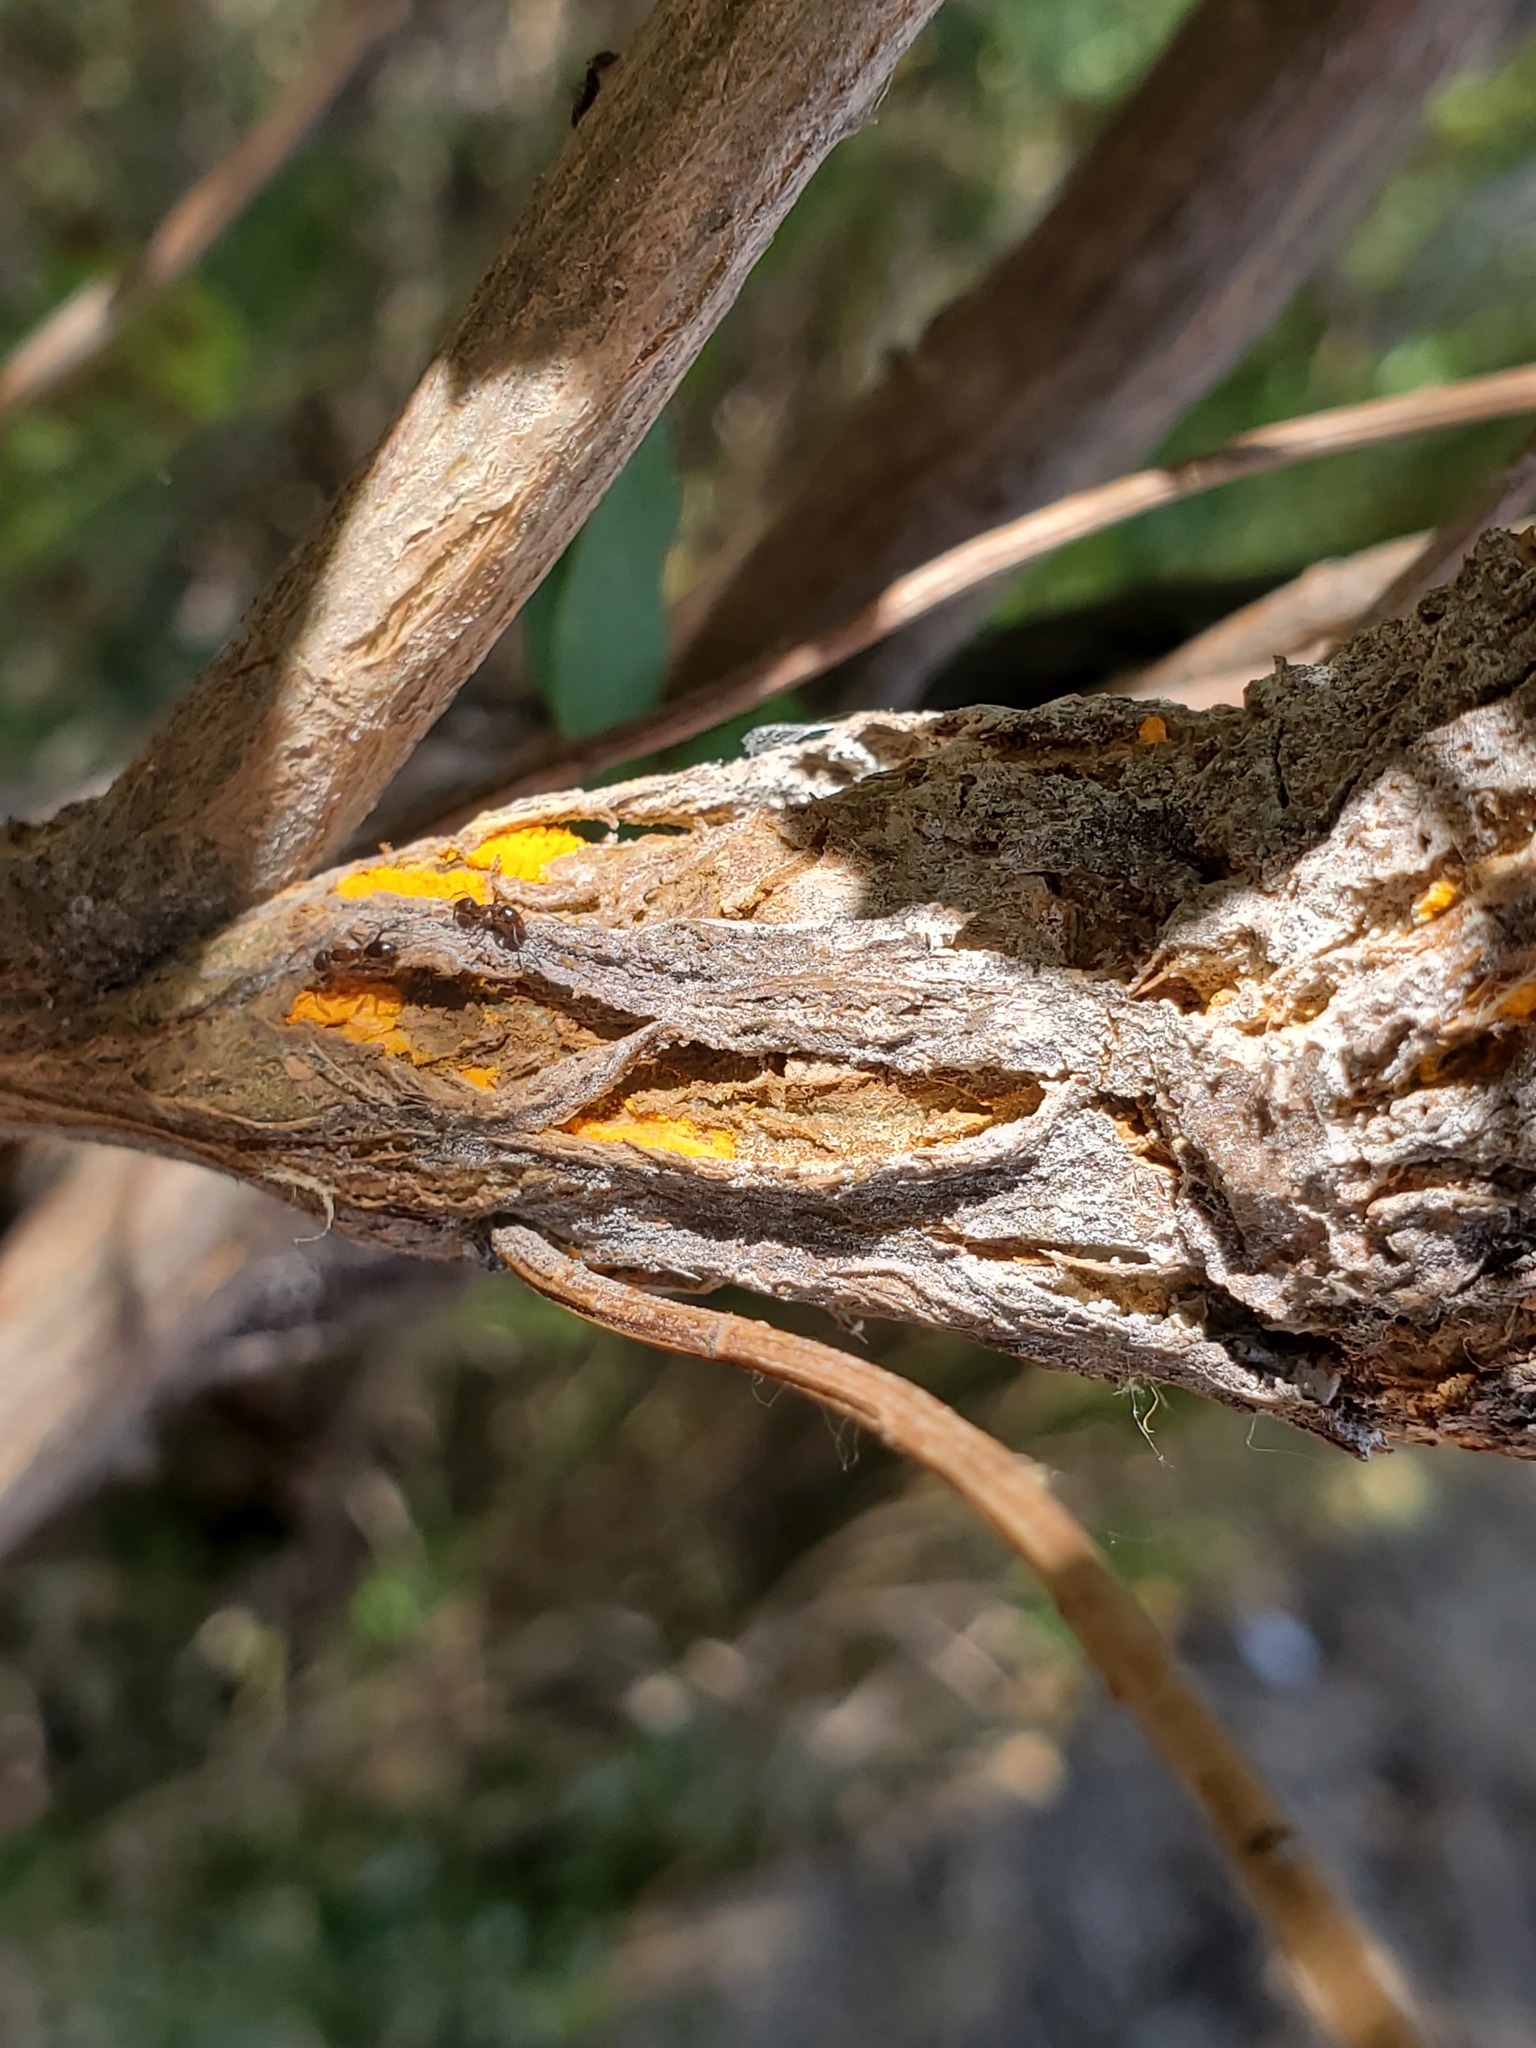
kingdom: Fungi
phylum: Basidiomycota
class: Pucciniomycetes
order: Pucciniales
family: Pucciniaceae
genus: Eriosporangium
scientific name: Eriosporangium evadens
